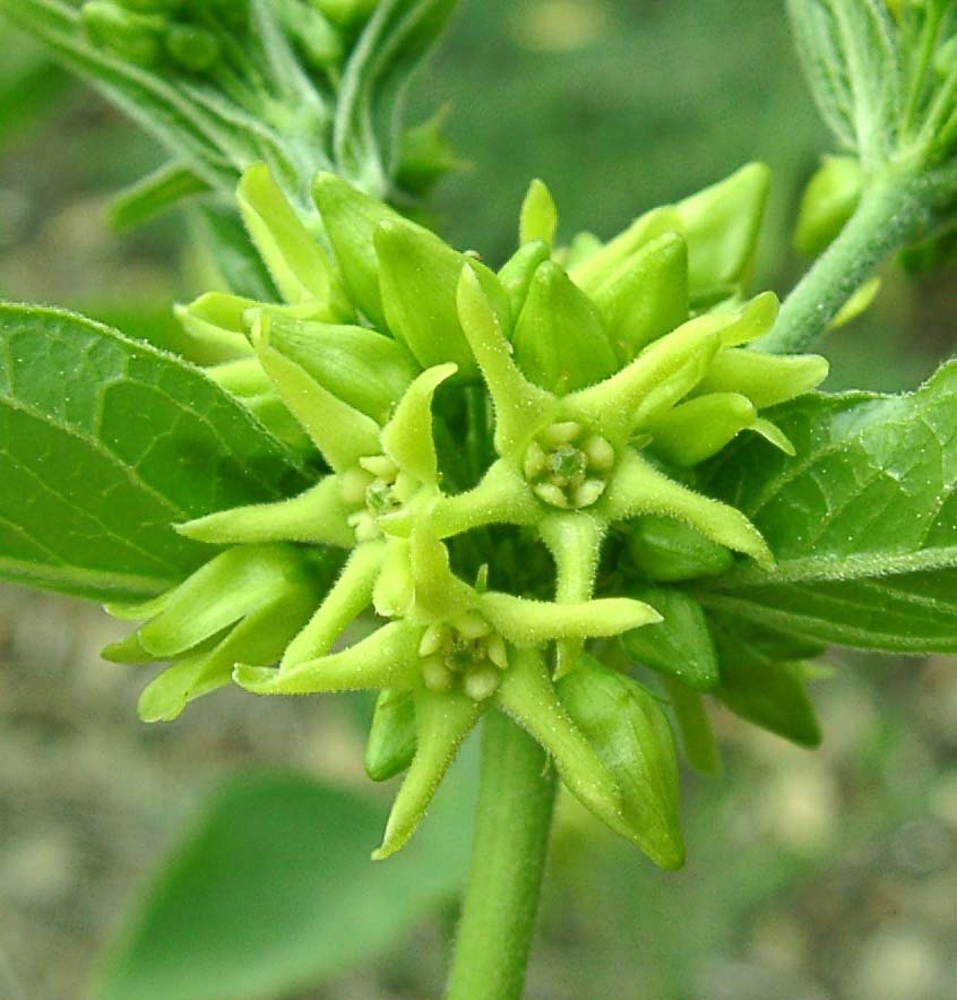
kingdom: Plantae
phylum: Tracheophyta
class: Magnoliopsida
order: Gentianales
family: Apocynaceae
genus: Vincetoxicum
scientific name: Vincetoxicum hirundinaria
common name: White swallowwort
